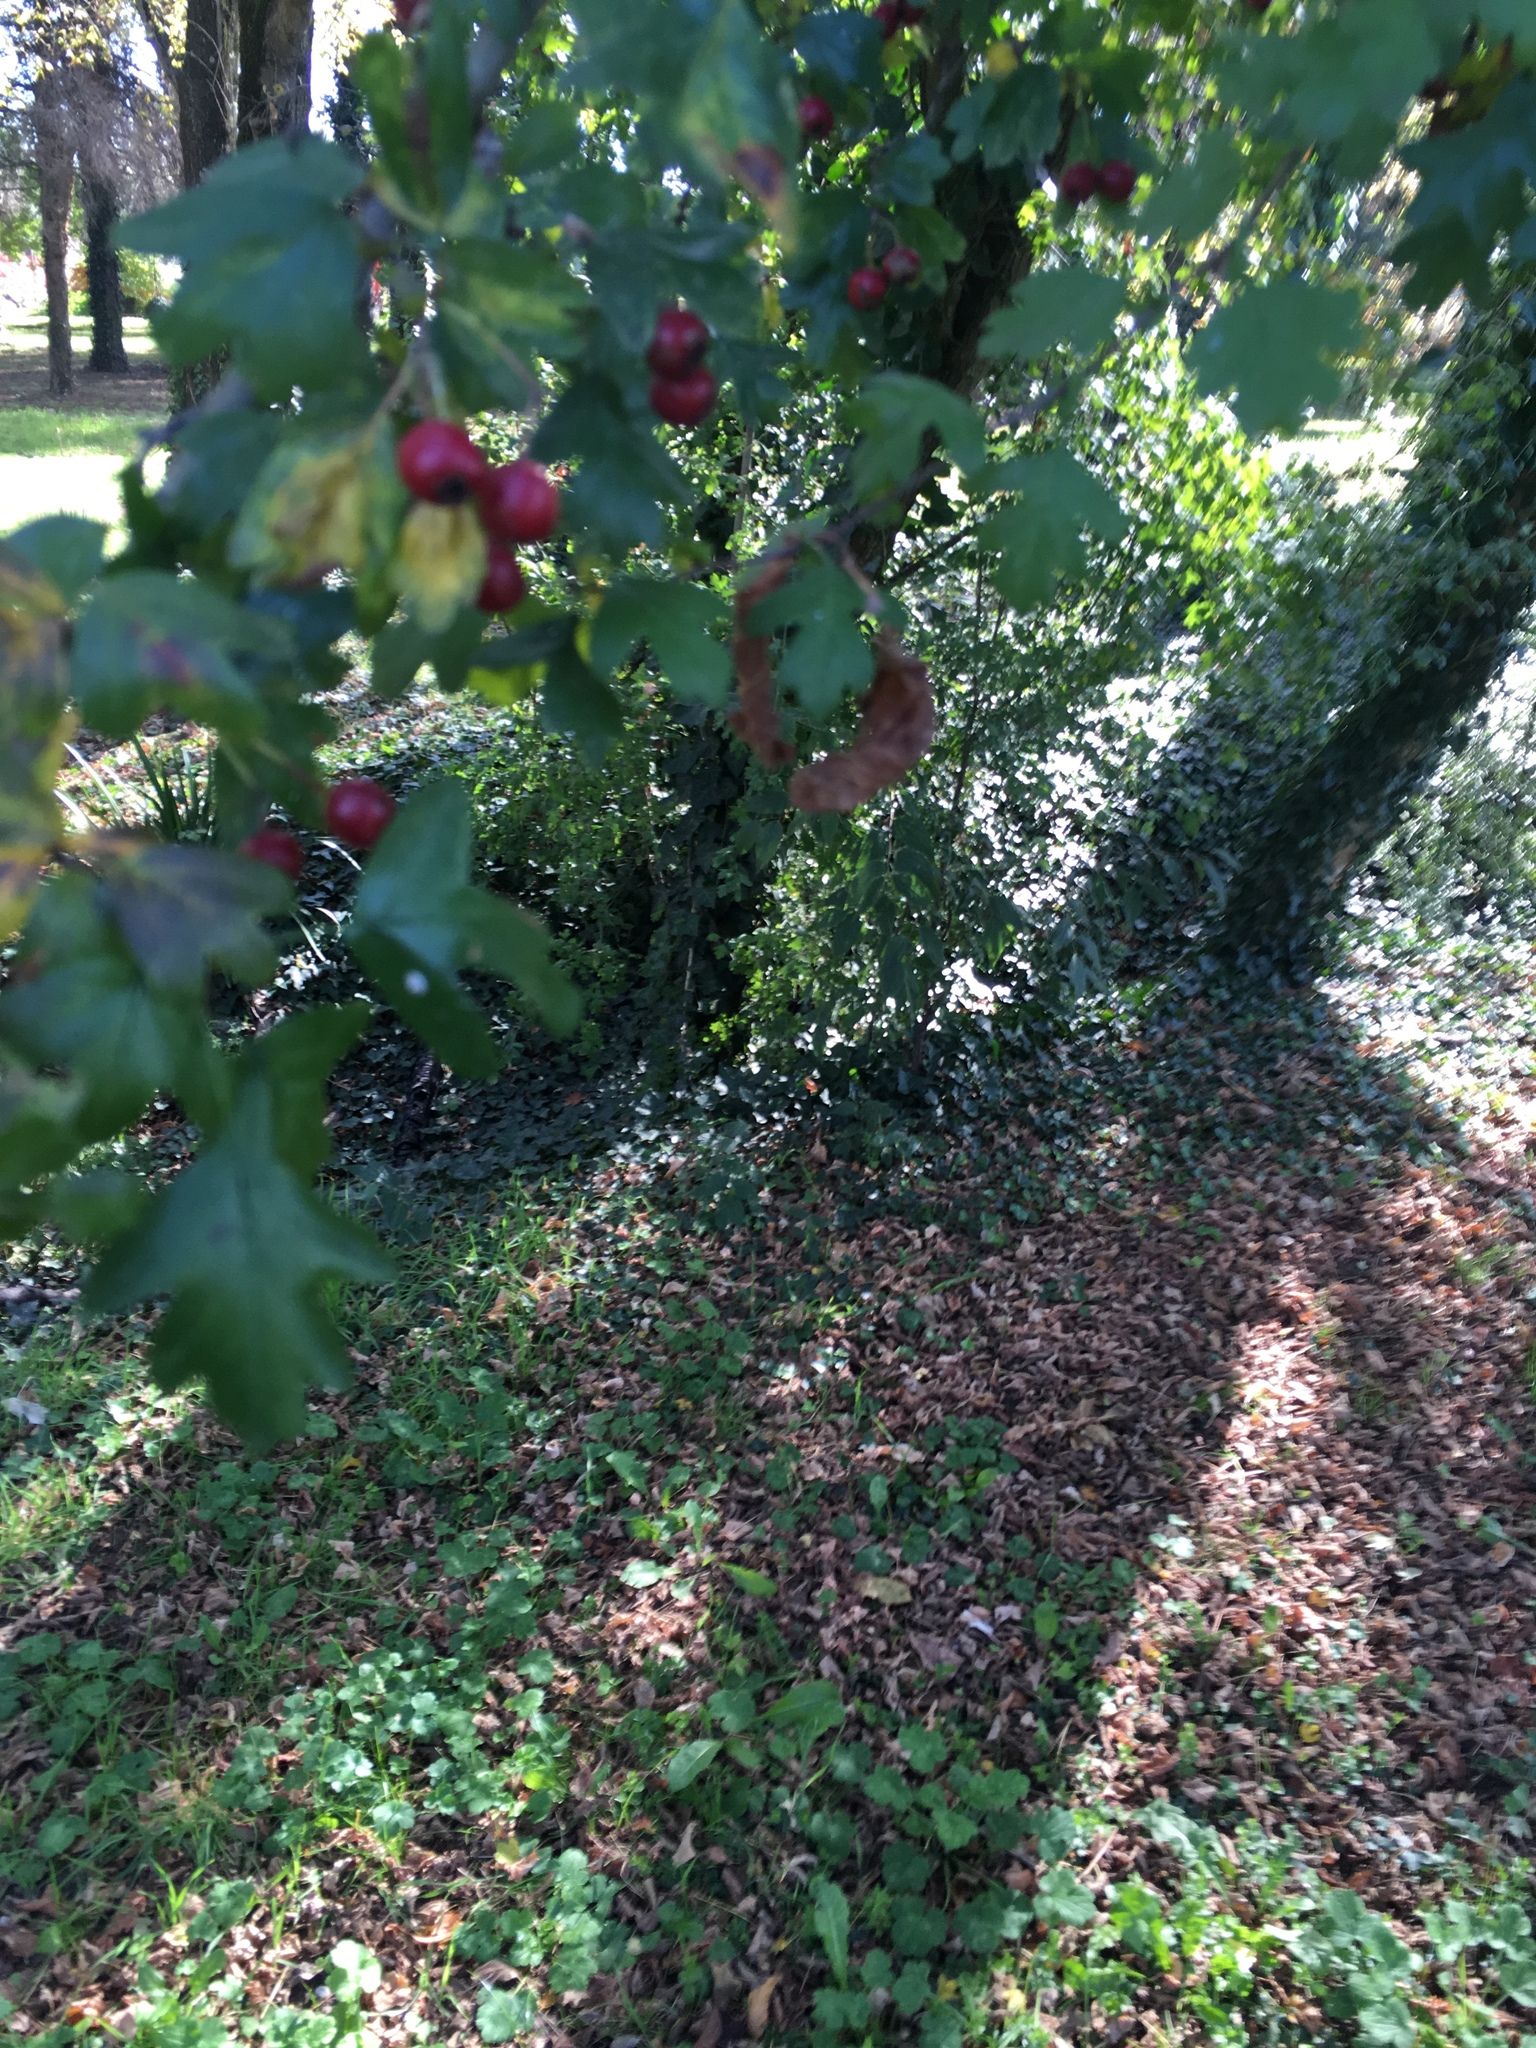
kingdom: Plantae
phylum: Tracheophyta
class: Magnoliopsida
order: Rosales
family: Rosaceae
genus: Crataegus
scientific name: Crataegus monogyna
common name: Hawthorn
